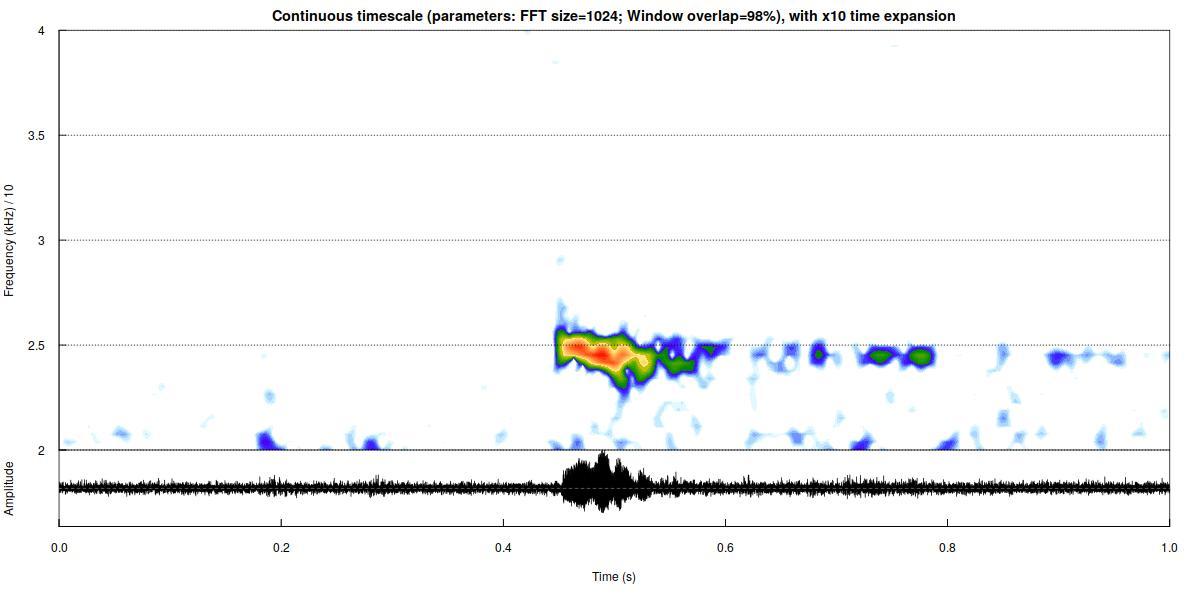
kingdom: Animalia
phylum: Chordata
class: Mammalia
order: Chiroptera
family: Vespertilionidae
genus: Nyctalus
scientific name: Nyctalus leisleri
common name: Lesser noctule
